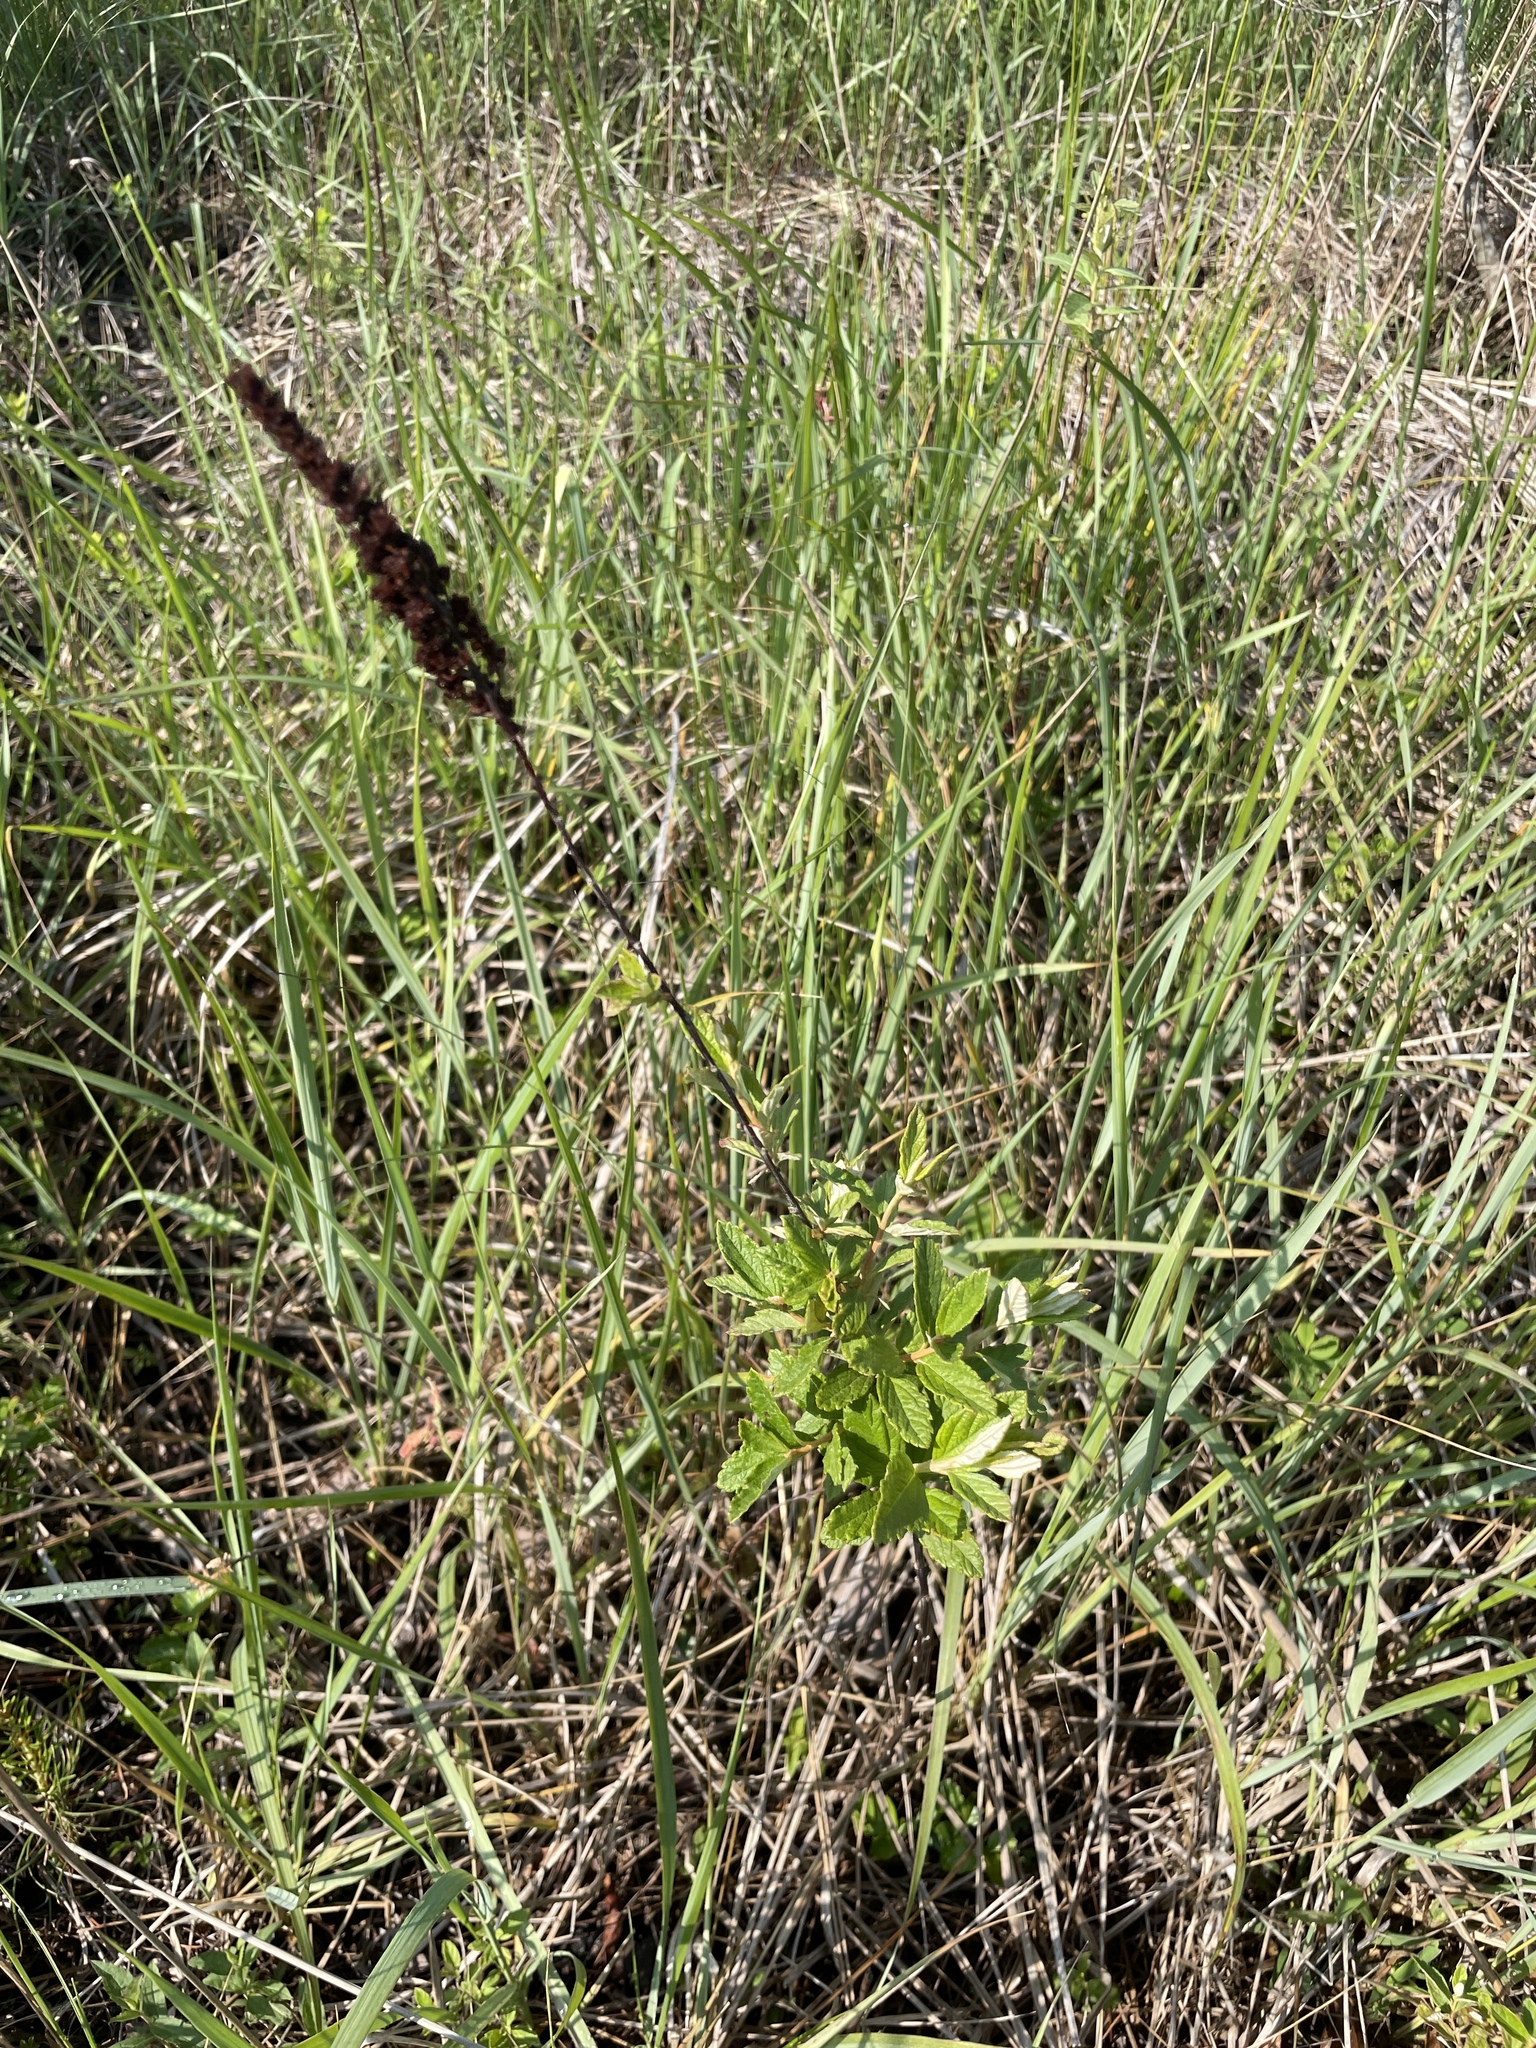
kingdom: Plantae
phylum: Tracheophyta
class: Magnoliopsida
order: Rosales
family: Rosaceae
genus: Spiraea
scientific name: Spiraea tomentosa
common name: Hardhack
